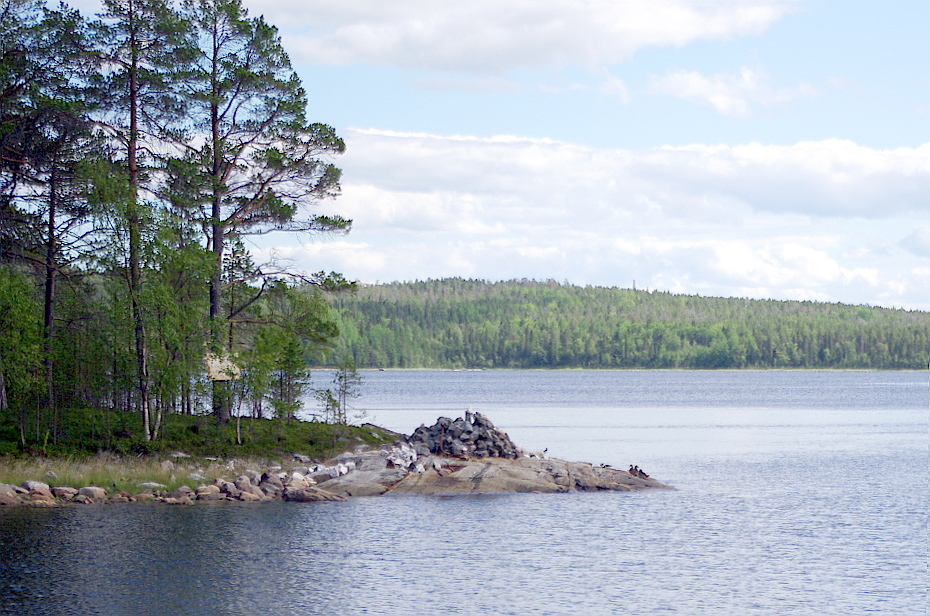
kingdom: Plantae
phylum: Tracheophyta
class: Pinopsida
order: Pinales
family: Pinaceae
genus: Pinus
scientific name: Pinus sylvestris
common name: Scots pine
